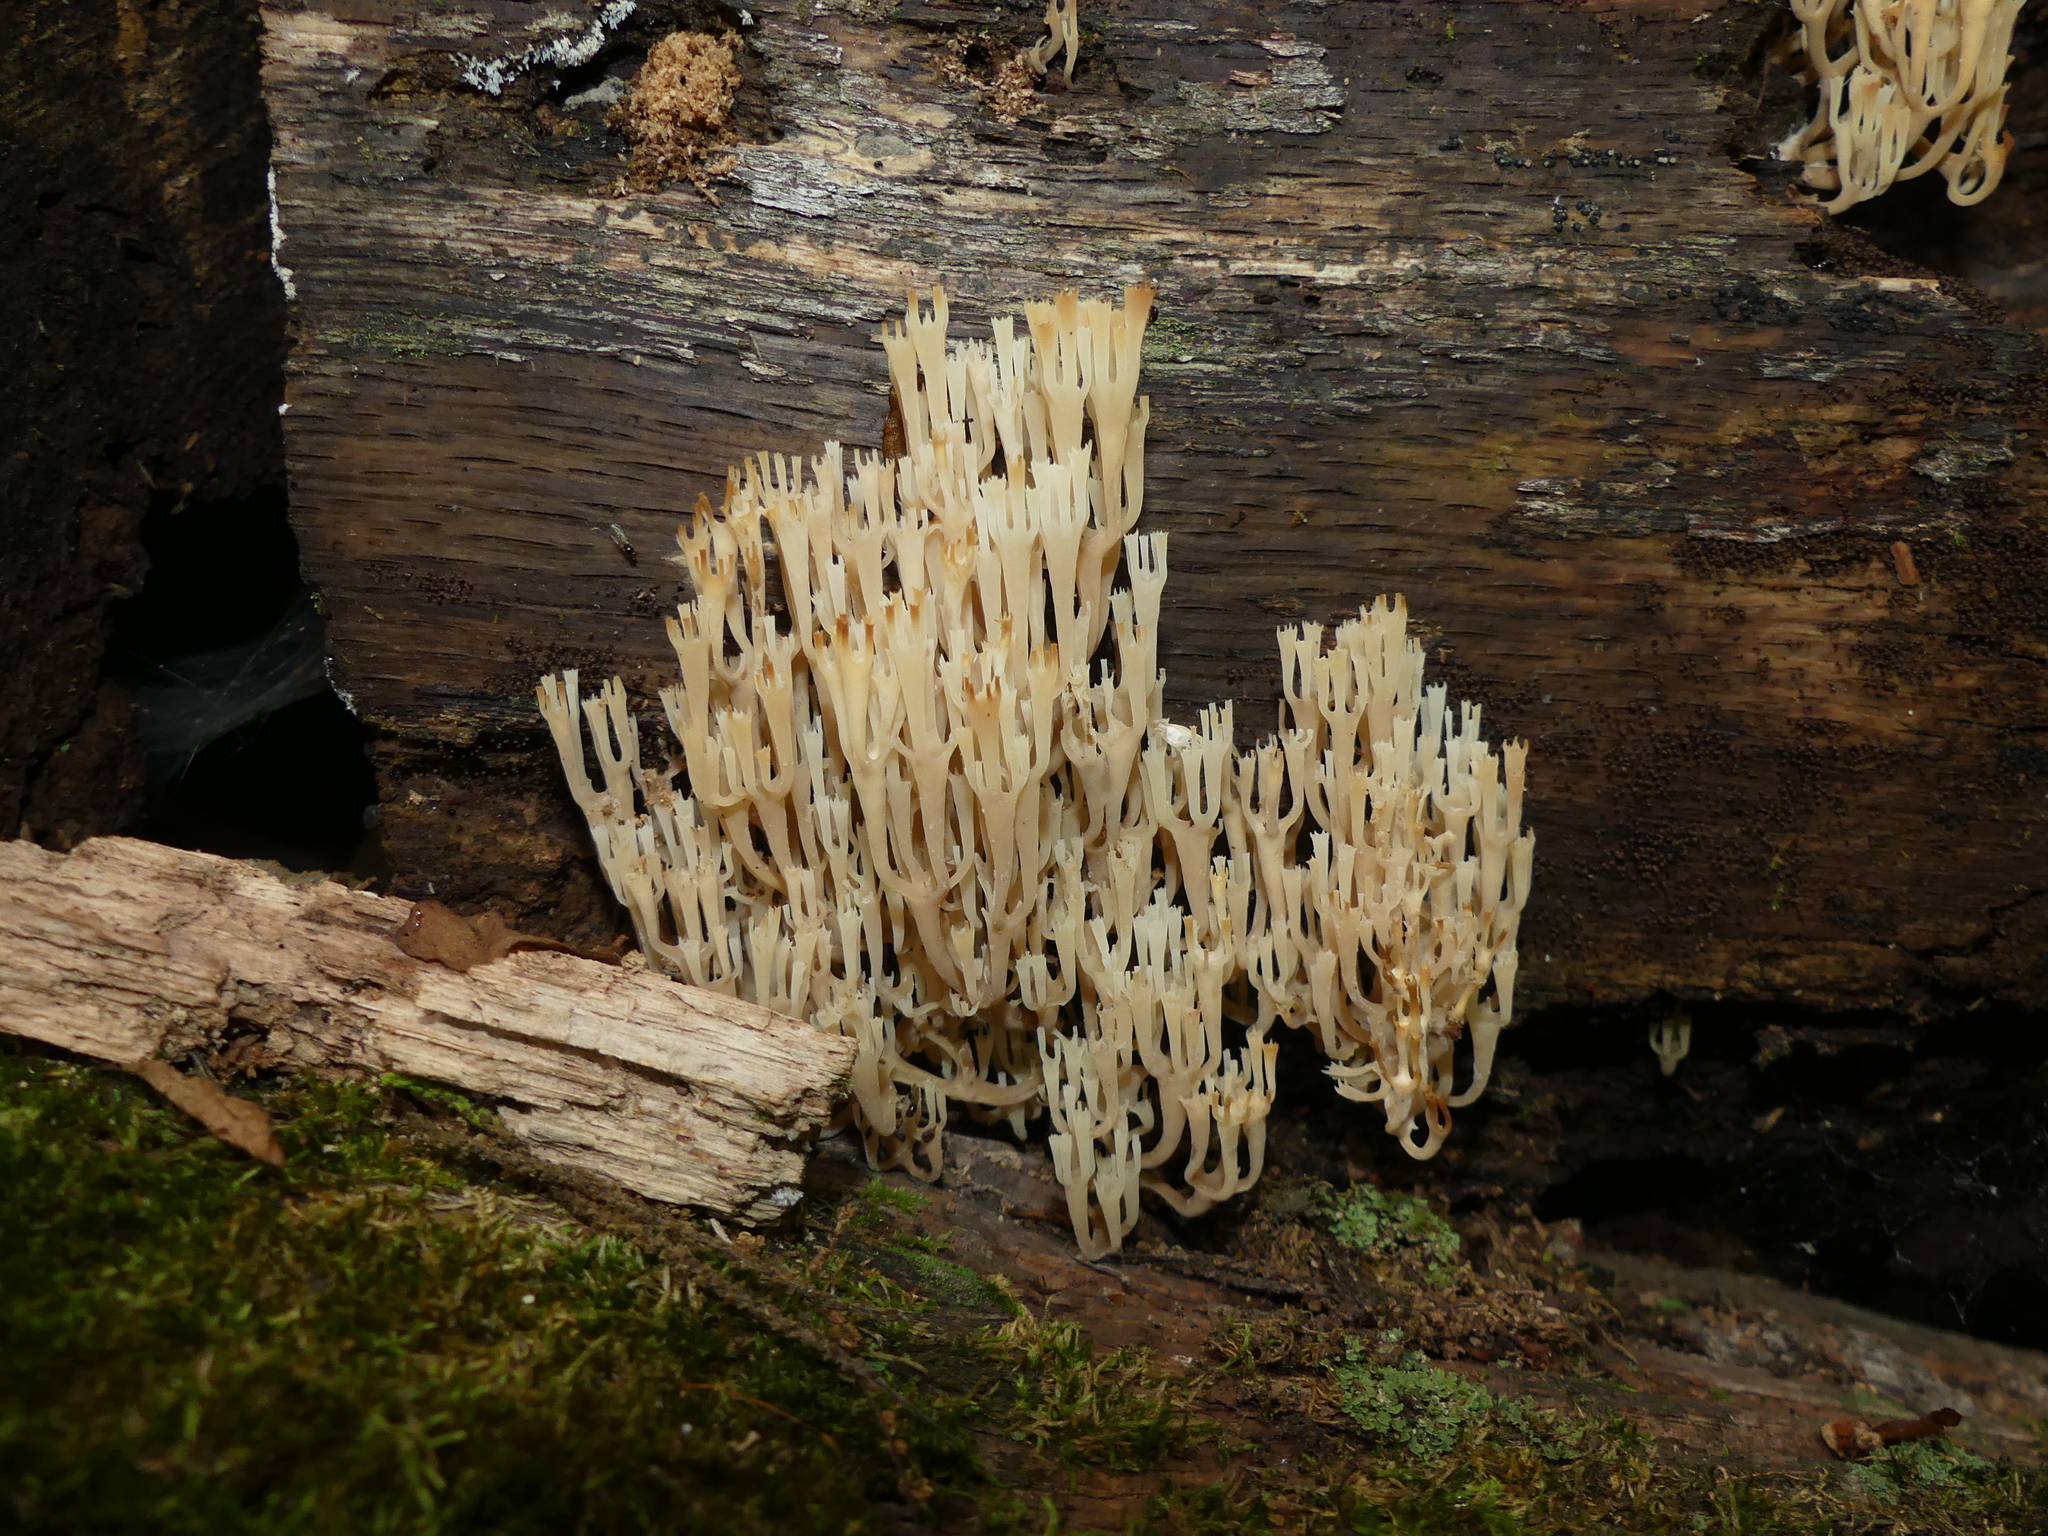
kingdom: Fungi
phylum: Basidiomycota
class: Agaricomycetes
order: Russulales
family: Auriscalpiaceae
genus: Artomyces
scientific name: Artomyces pyxidatus
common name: Crown-tipped coral fungus
